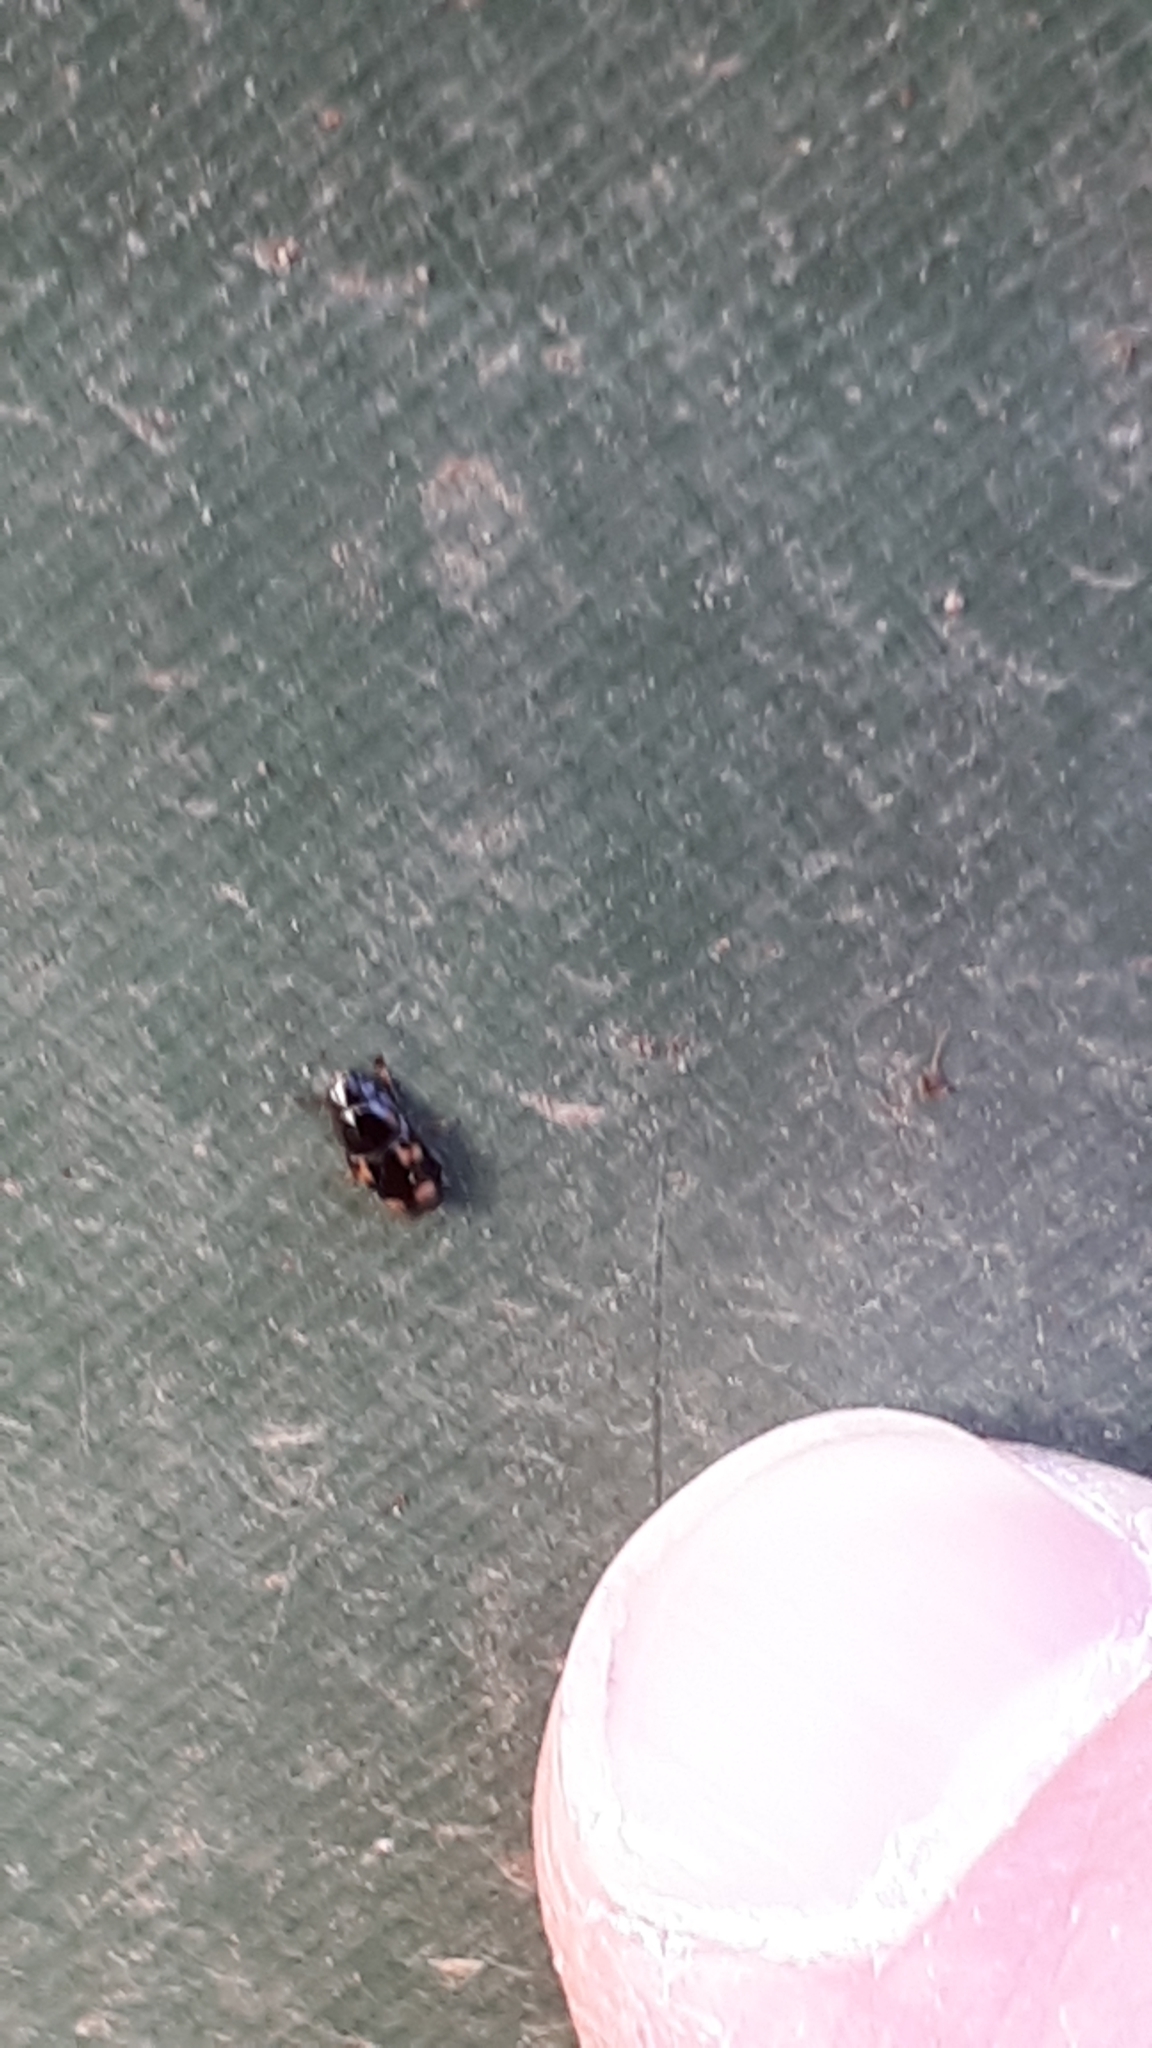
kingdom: Animalia
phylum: Arthropoda
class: Insecta
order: Coleoptera
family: Nitidulidae
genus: Glischrochilus
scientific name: Glischrochilus quadrisignatus
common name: Picnic beetle
